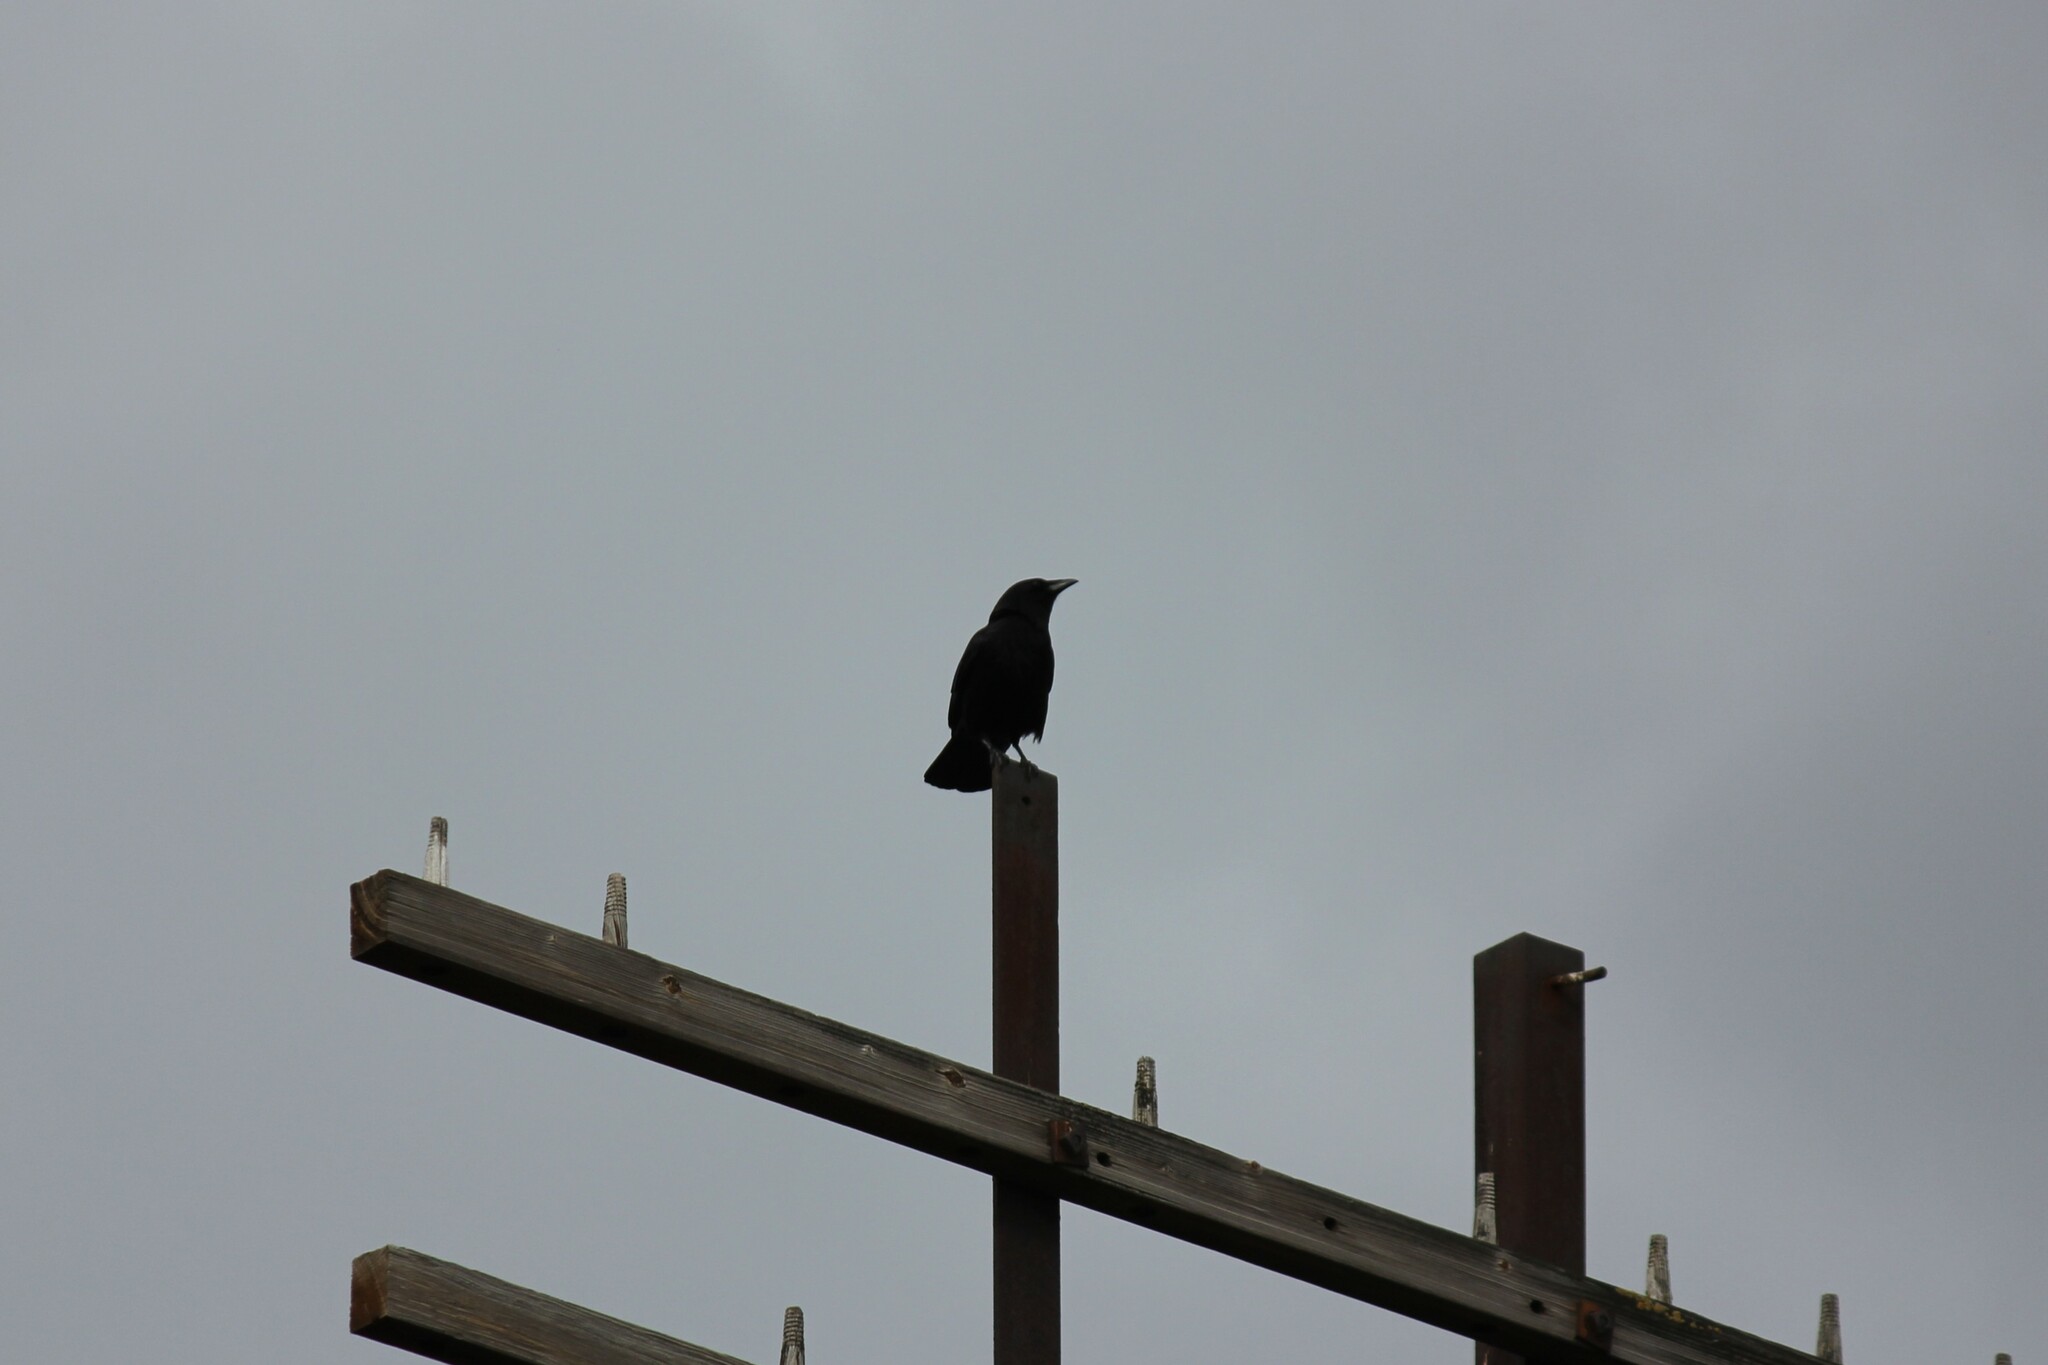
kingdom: Animalia
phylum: Chordata
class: Aves
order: Passeriformes
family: Corvidae
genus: Corvus
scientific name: Corvus brachyrhynchos
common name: American crow
